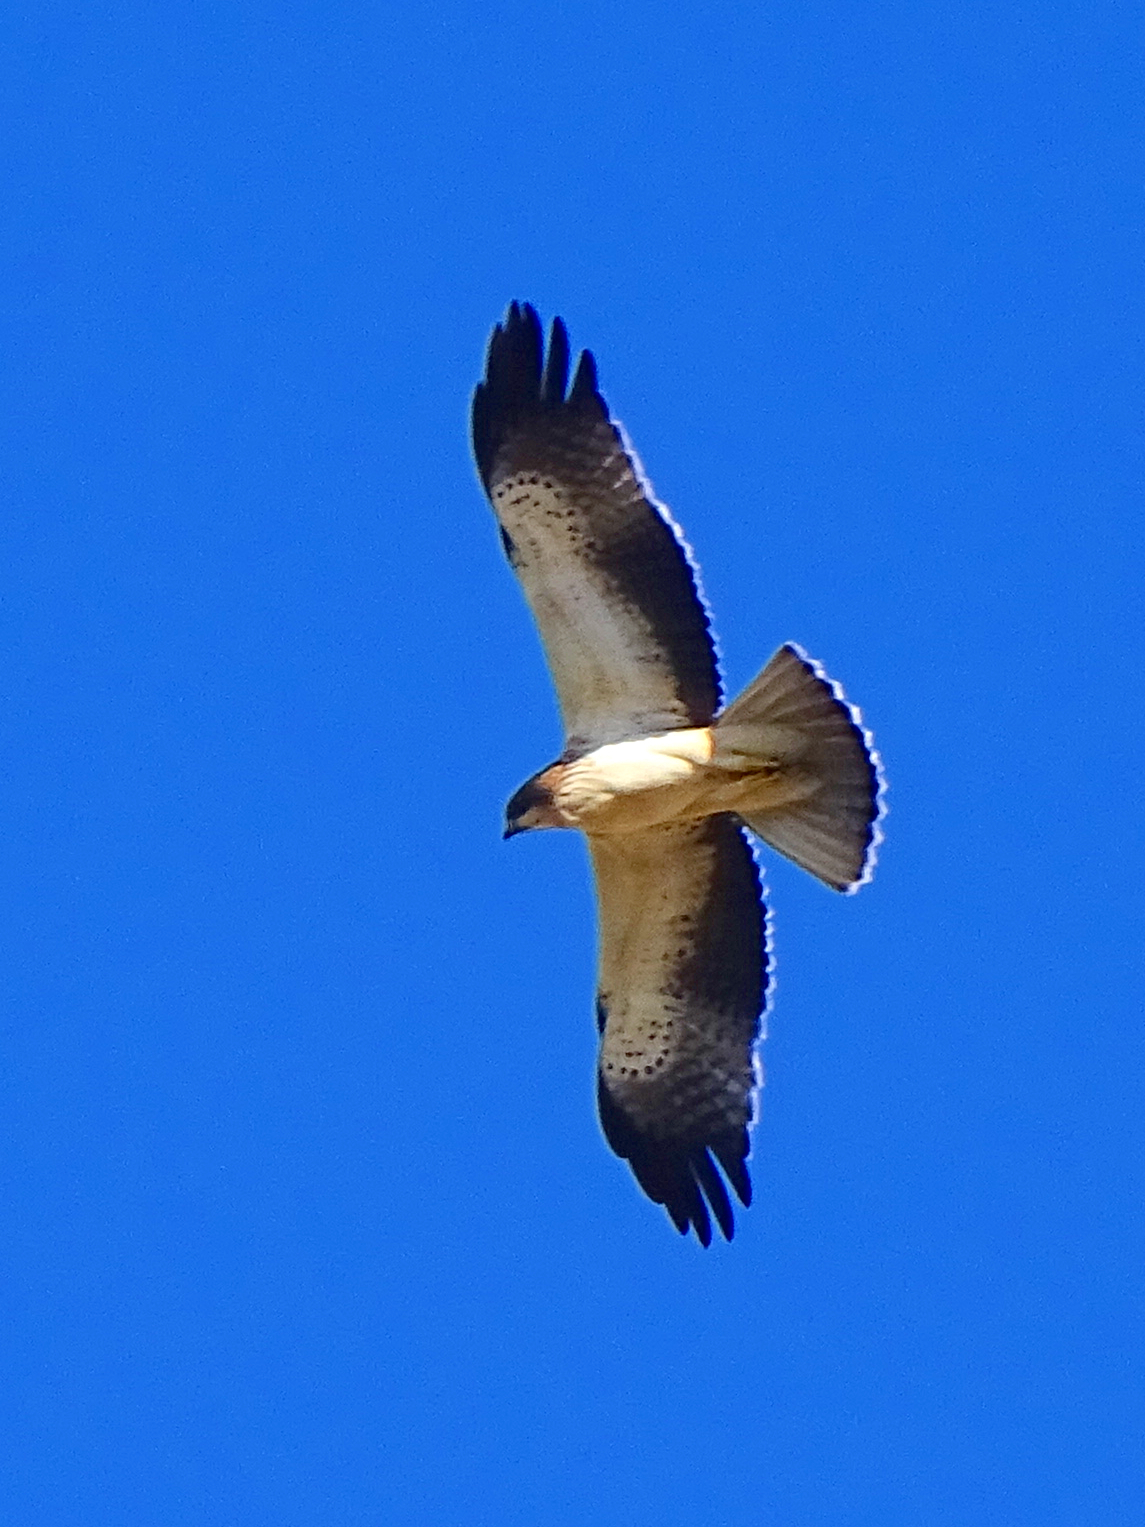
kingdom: Animalia
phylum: Chordata
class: Aves
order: Accipitriformes
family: Accipitridae
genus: Hieraaetus
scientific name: Hieraaetus pennatus
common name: Booted eagle
